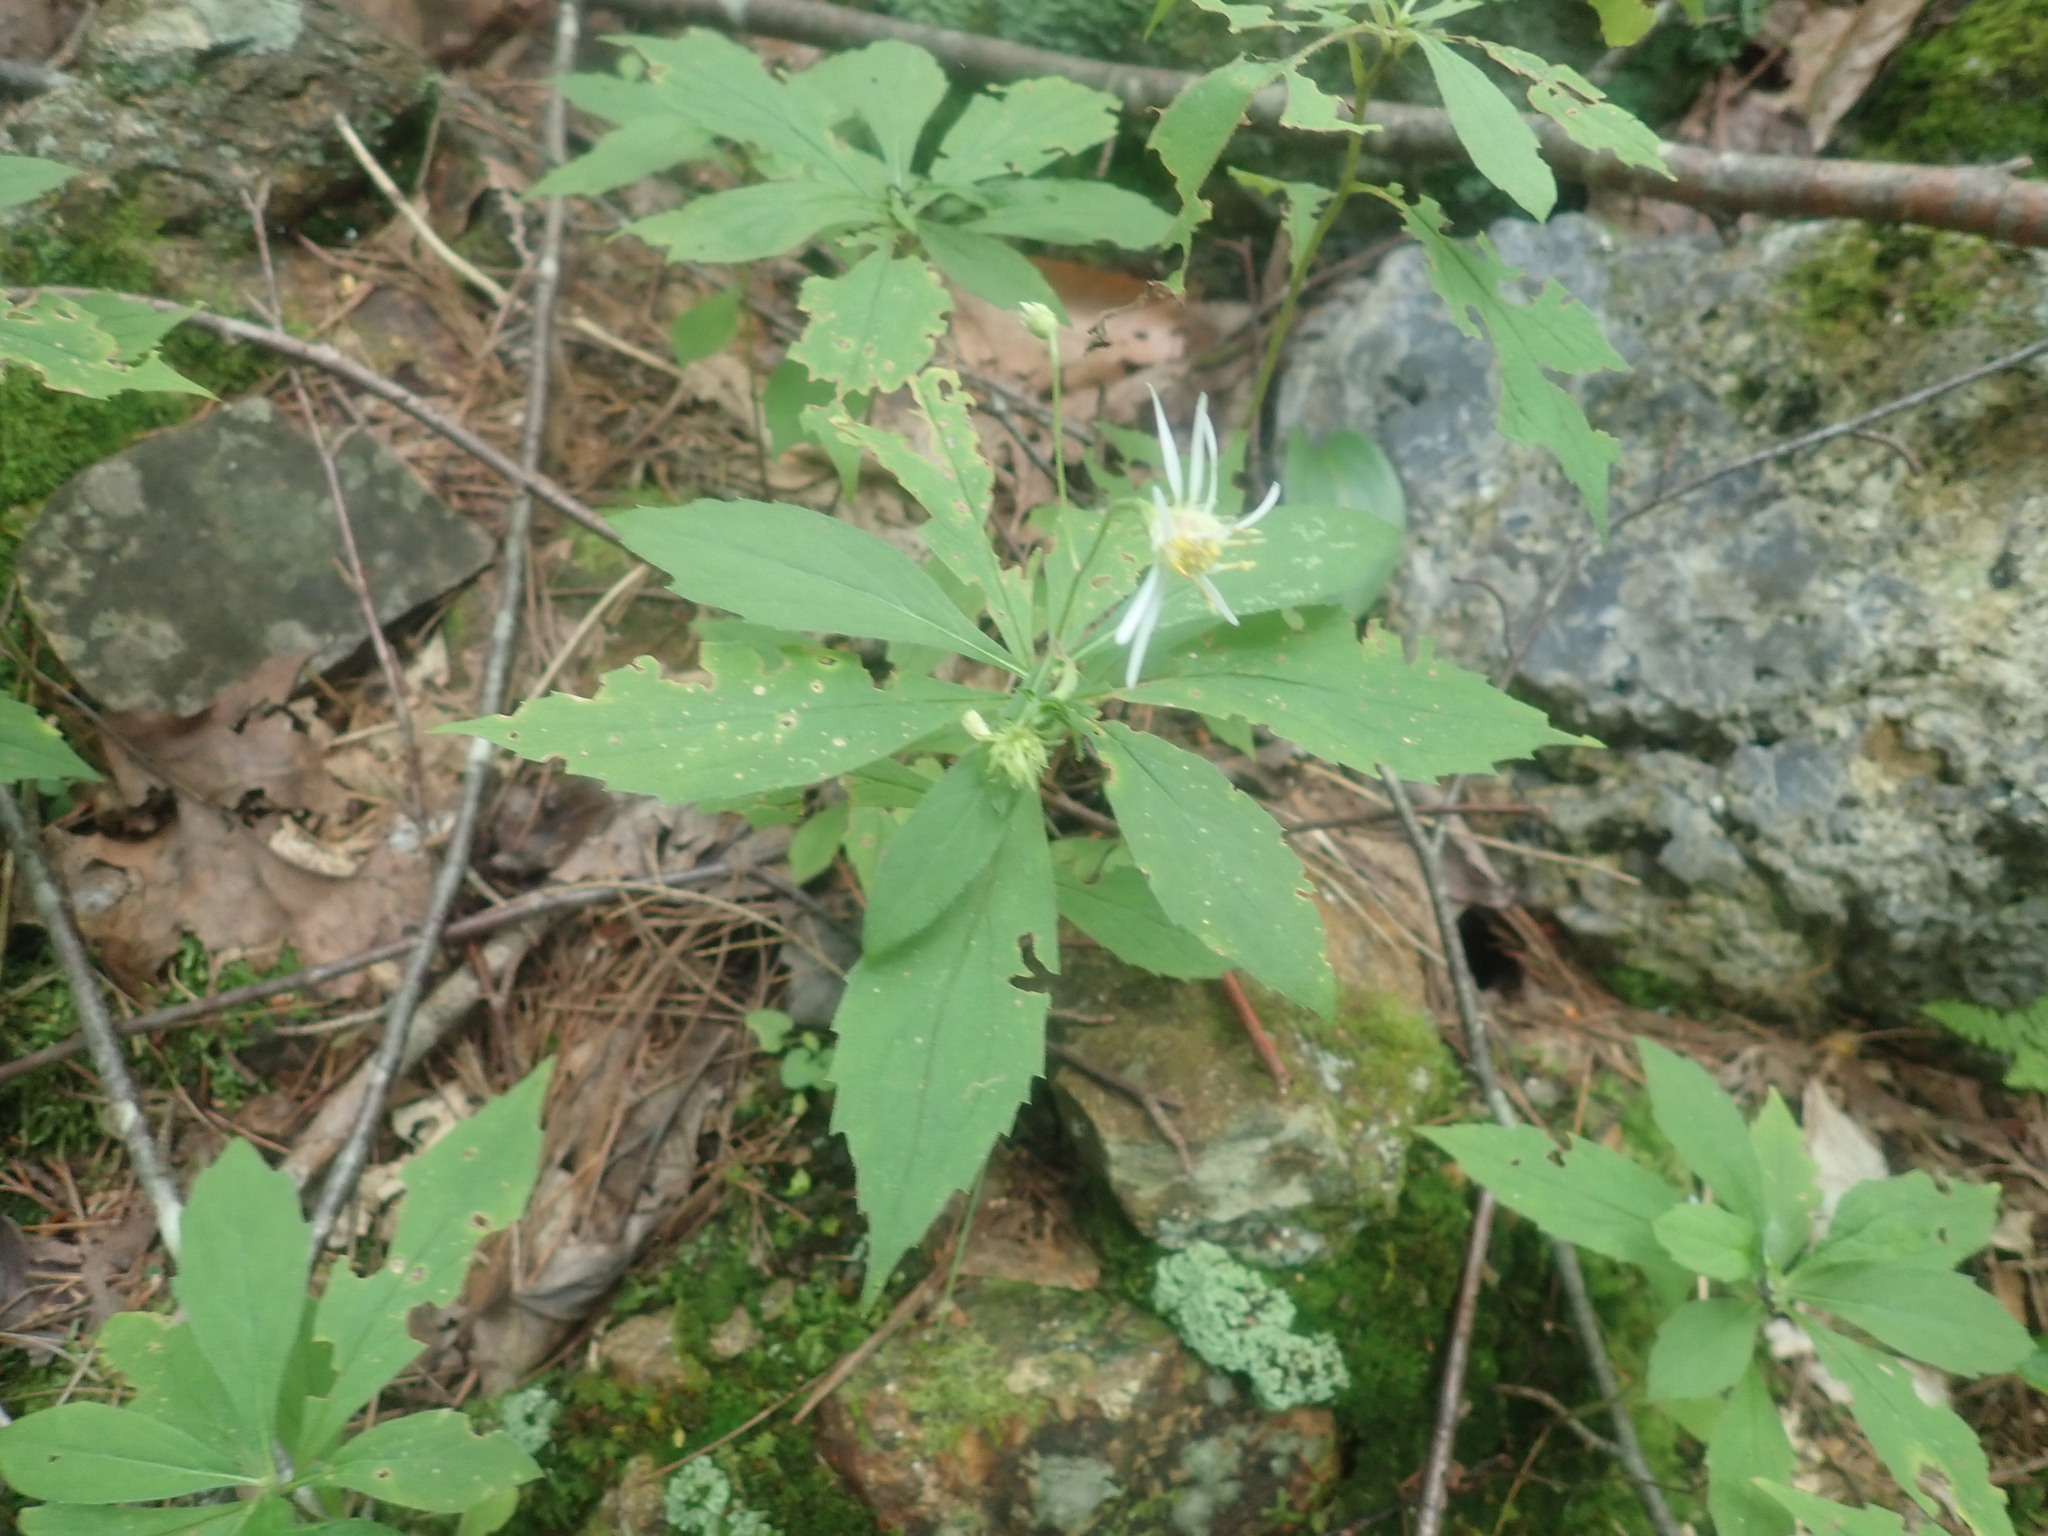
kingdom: Plantae
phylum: Tracheophyta
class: Magnoliopsida
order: Asterales
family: Asteraceae
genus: Oclemena
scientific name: Oclemena acuminata
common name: Mountain aster
